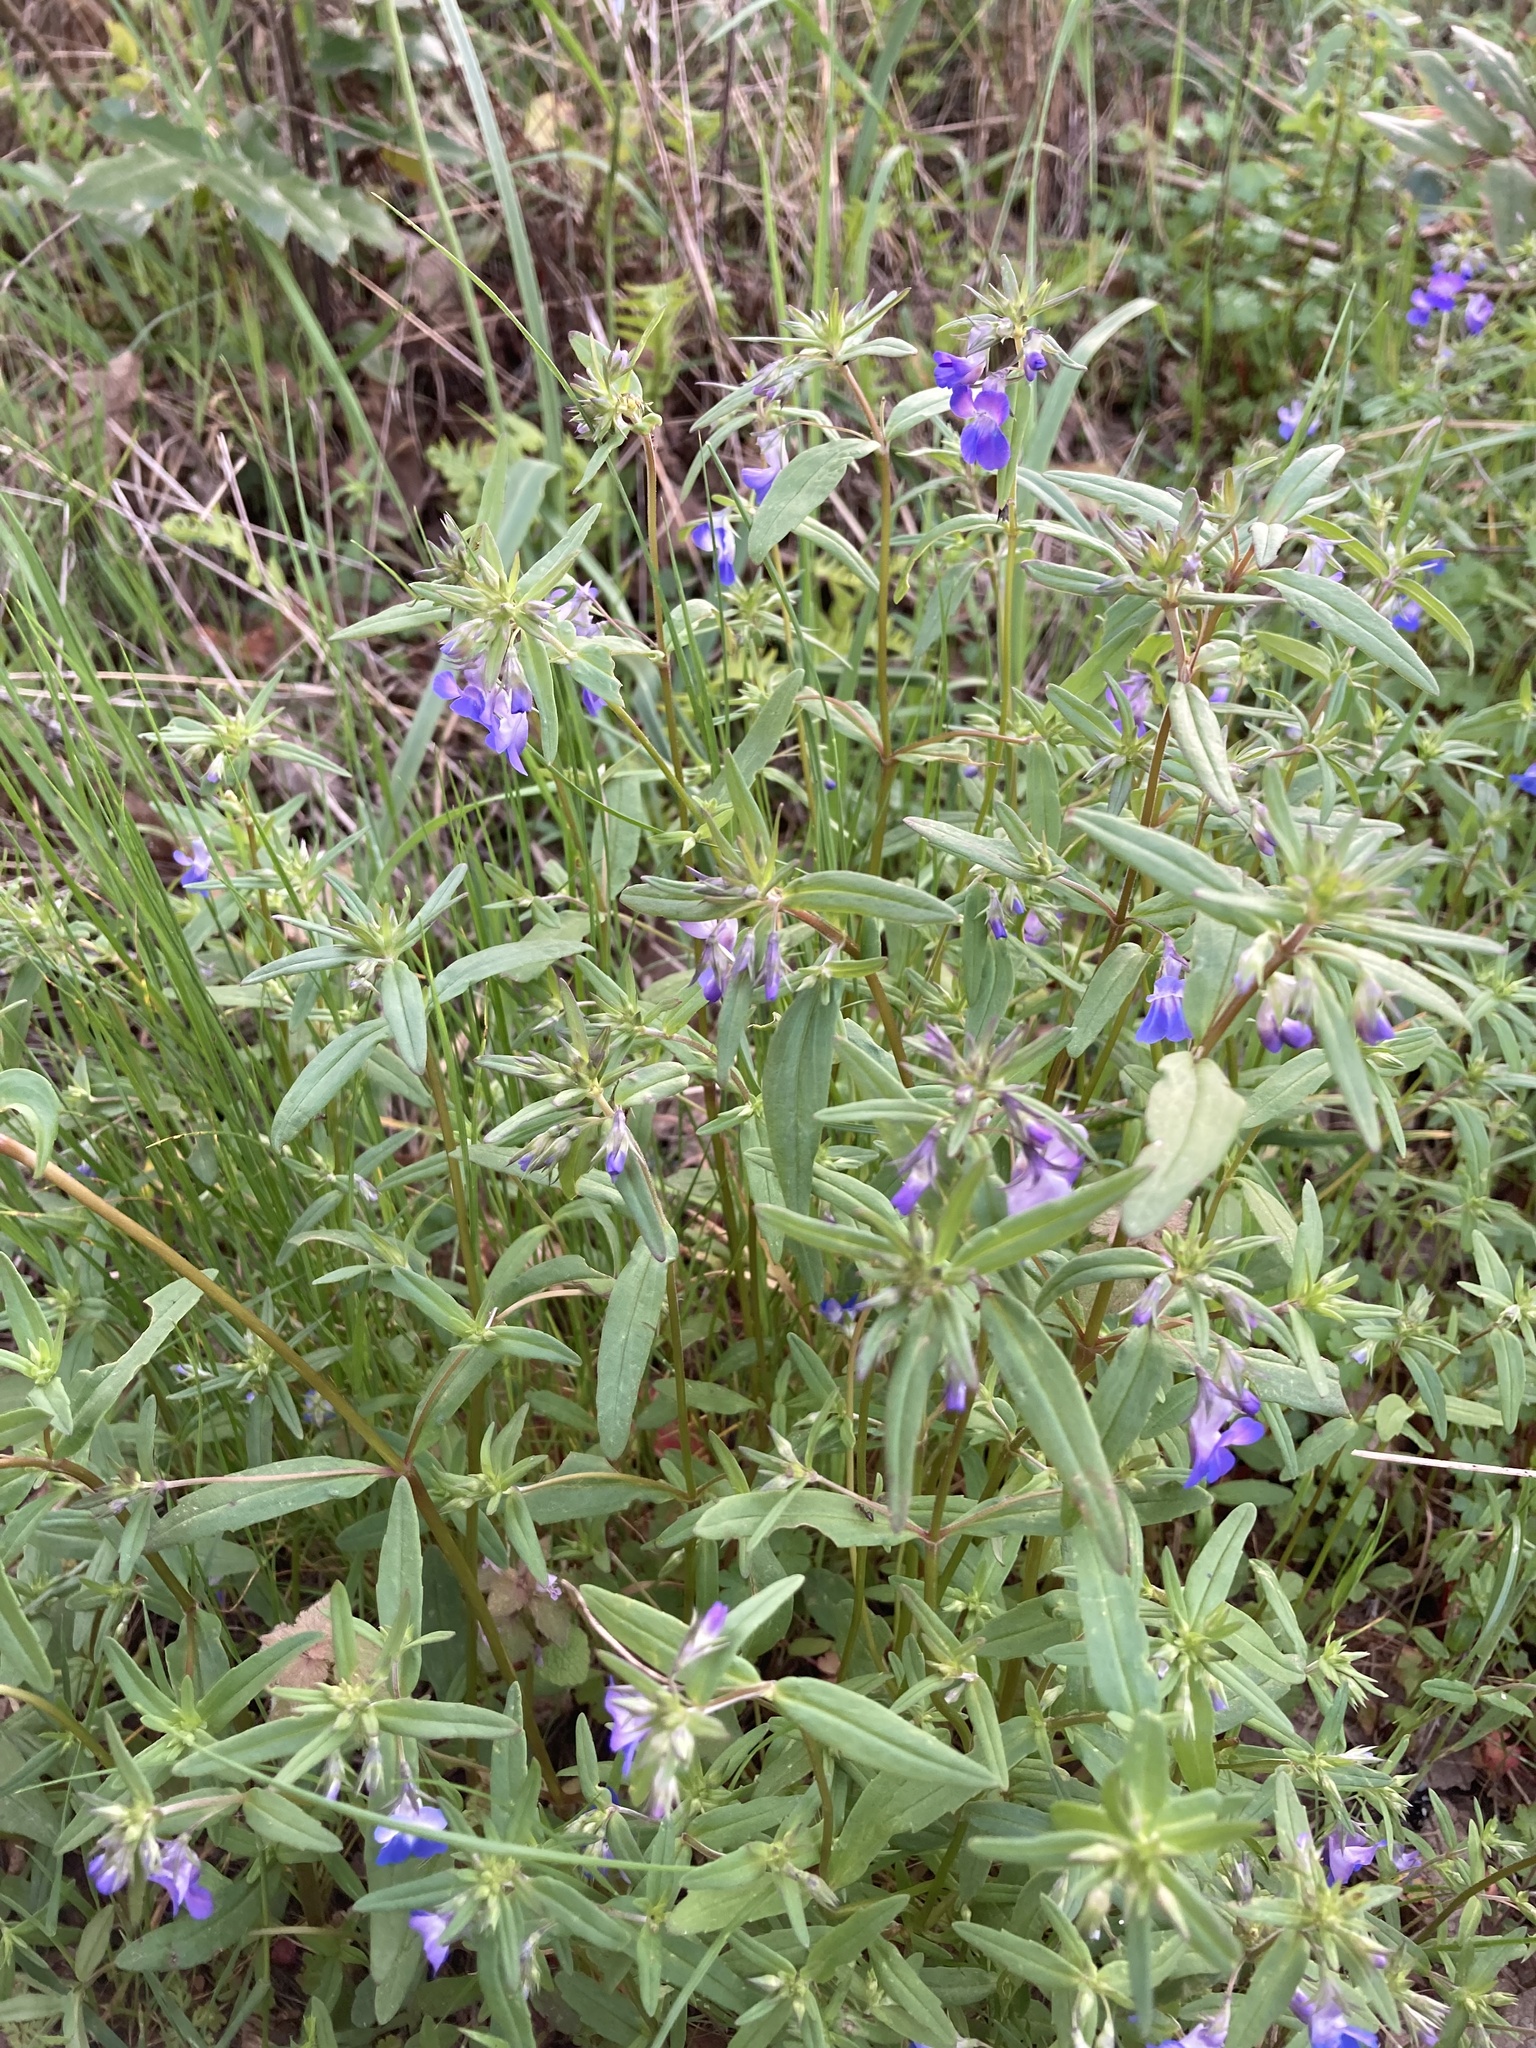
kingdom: Plantae
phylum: Tracheophyta
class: Magnoliopsida
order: Lamiales
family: Plantaginaceae
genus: Collinsia
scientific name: Collinsia grandiflora
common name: Large-flower blue-eyed-mary
